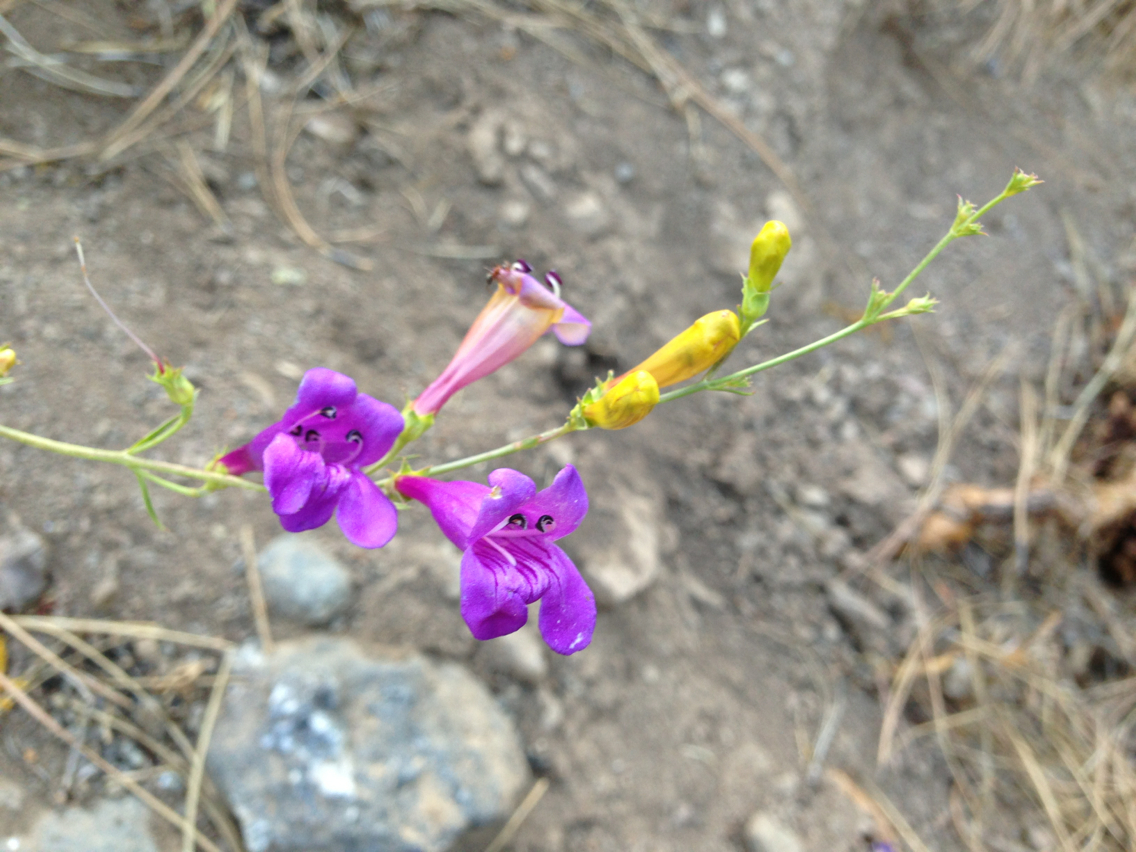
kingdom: Plantae
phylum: Tracheophyta
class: Magnoliopsida
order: Lamiales
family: Plantaginaceae
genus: Penstemon
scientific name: Penstemon heterophyllus
